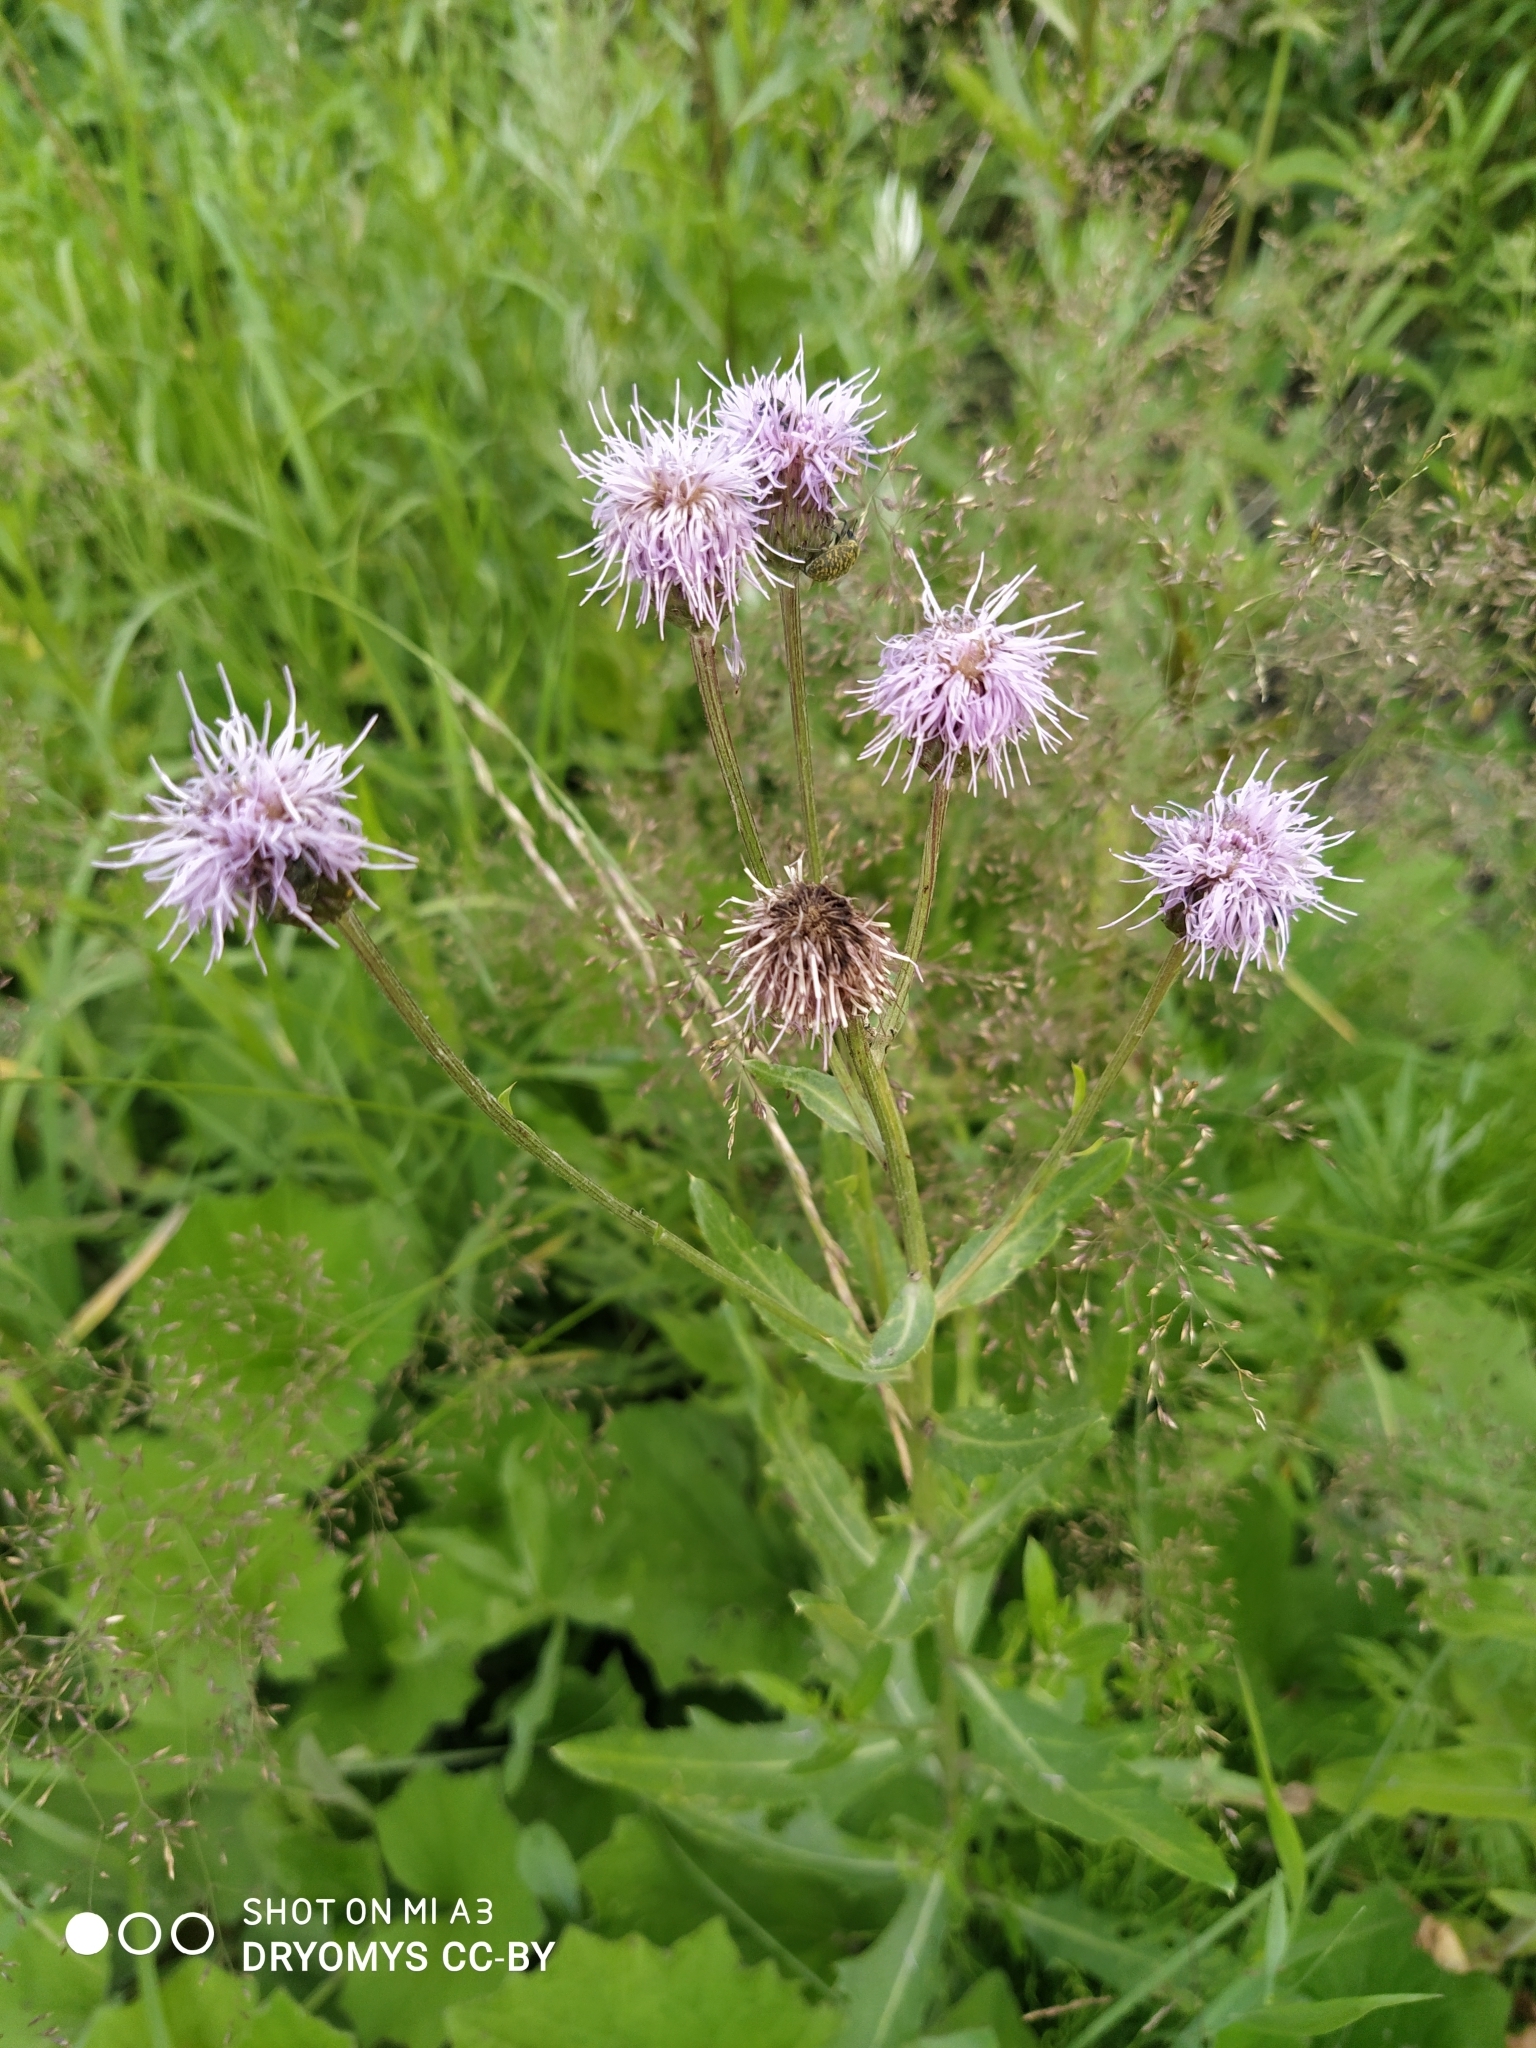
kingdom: Plantae
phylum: Tracheophyta
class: Magnoliopsida
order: Asterales
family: Asteraceae
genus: Cirsium
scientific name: Cirsium arvense
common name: Creeping thistle
